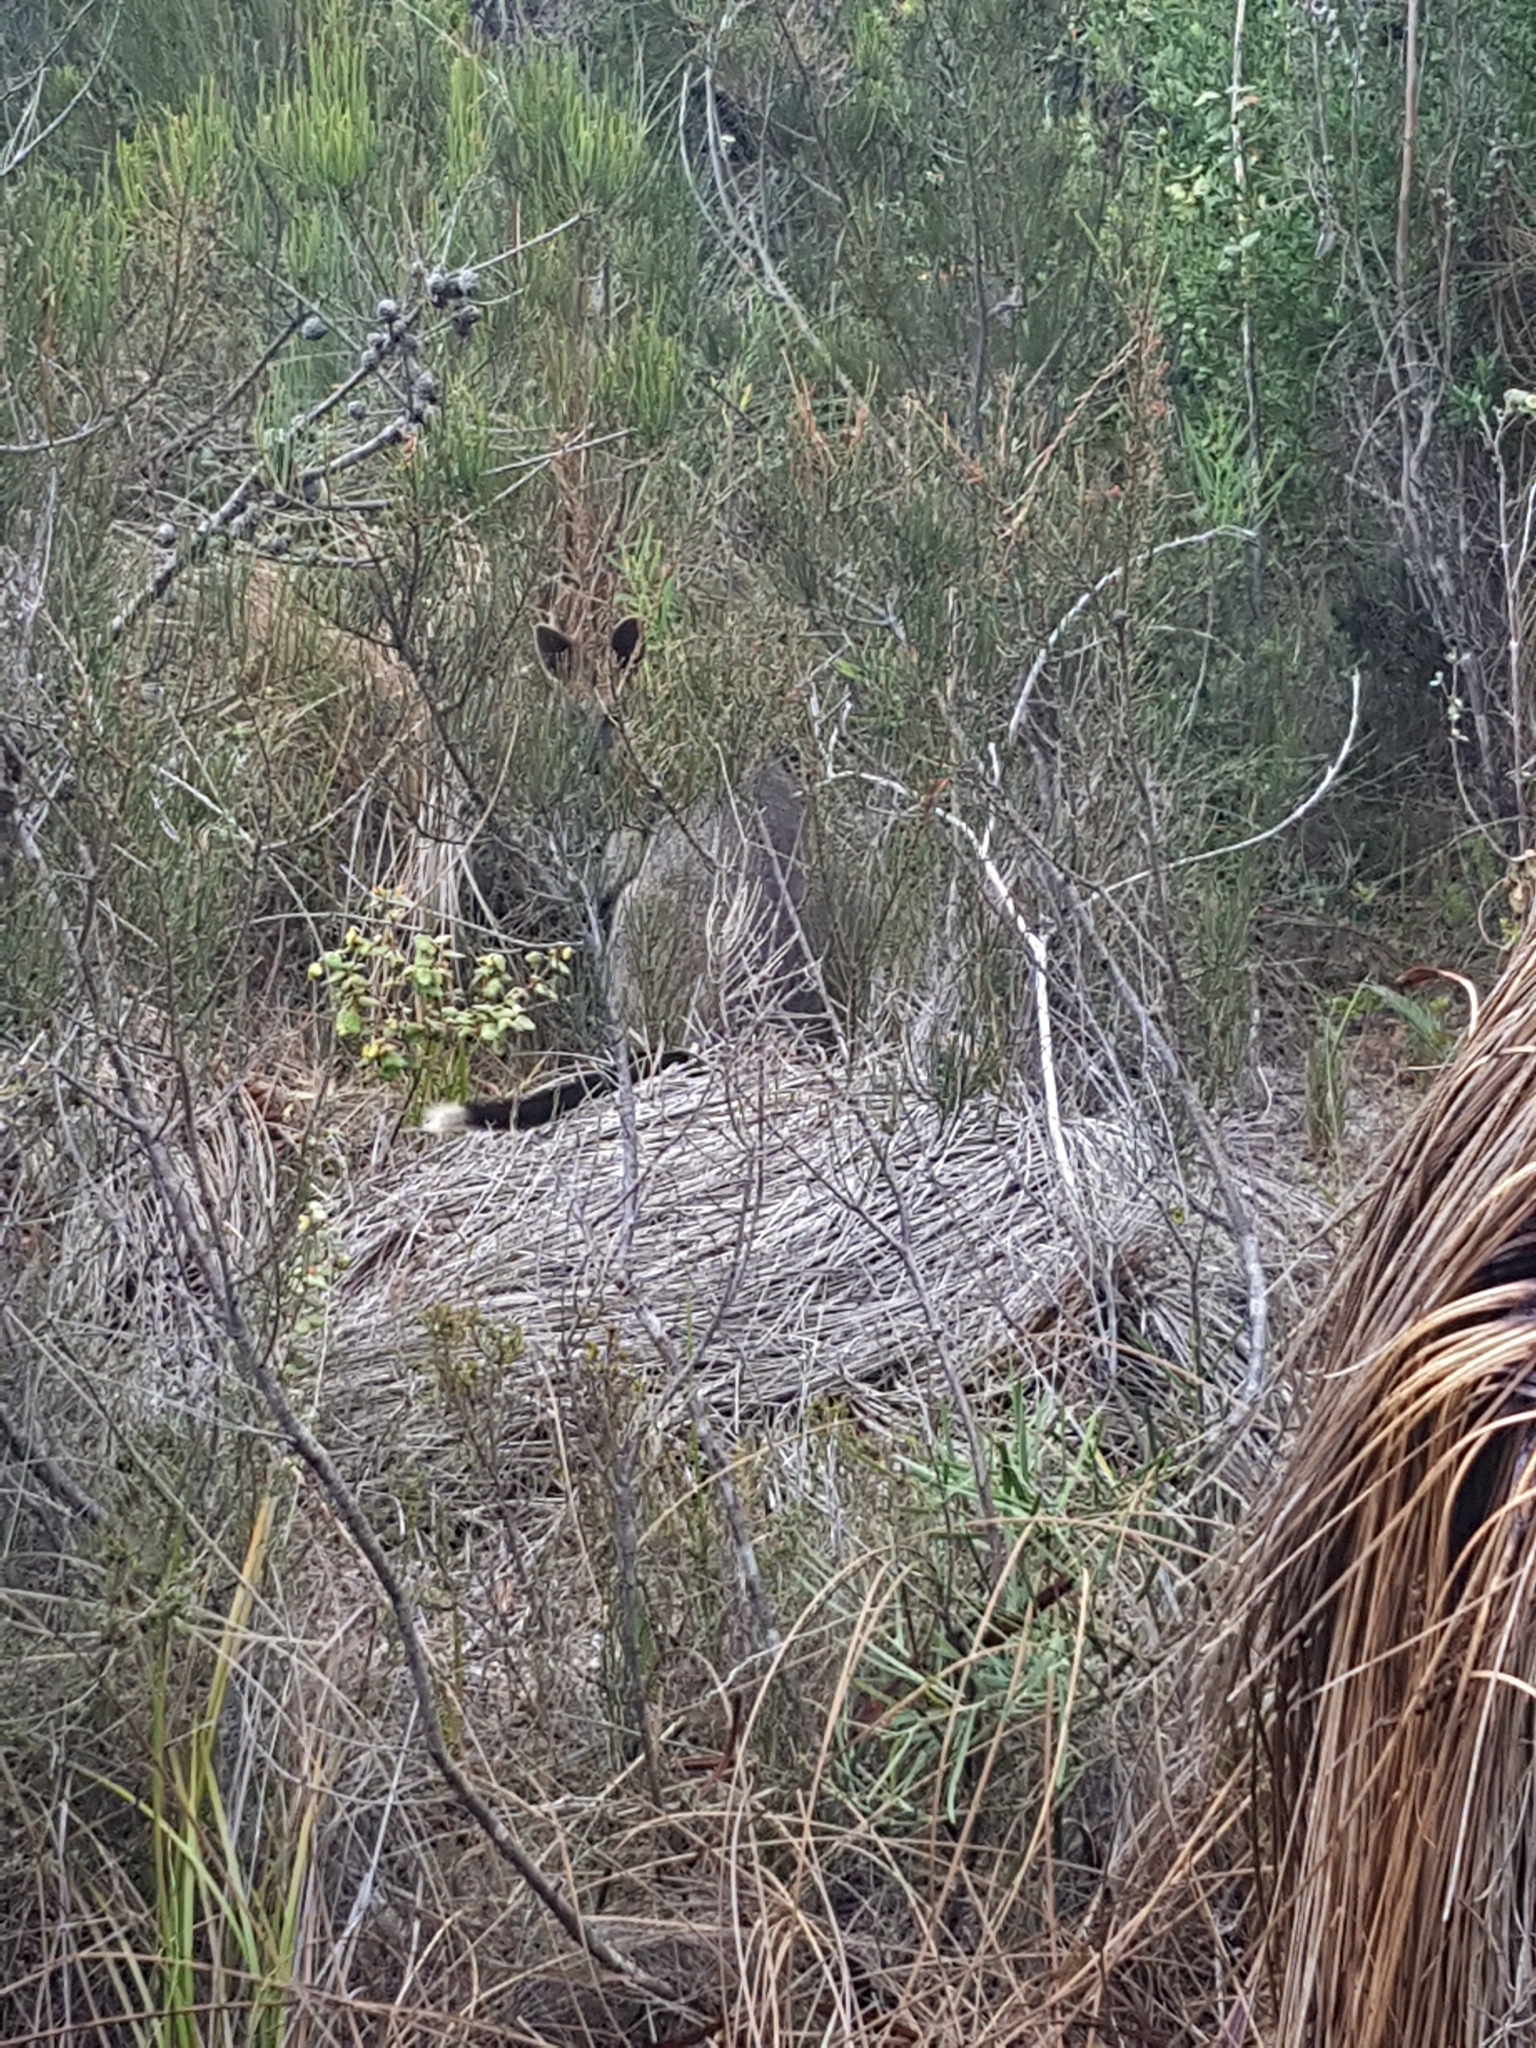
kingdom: Animalia
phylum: Chordata
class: Mammalia
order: Diprotodontia
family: Macropodidae
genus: Wallabia
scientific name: Wallabia bicolor
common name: Swamp wallaby
